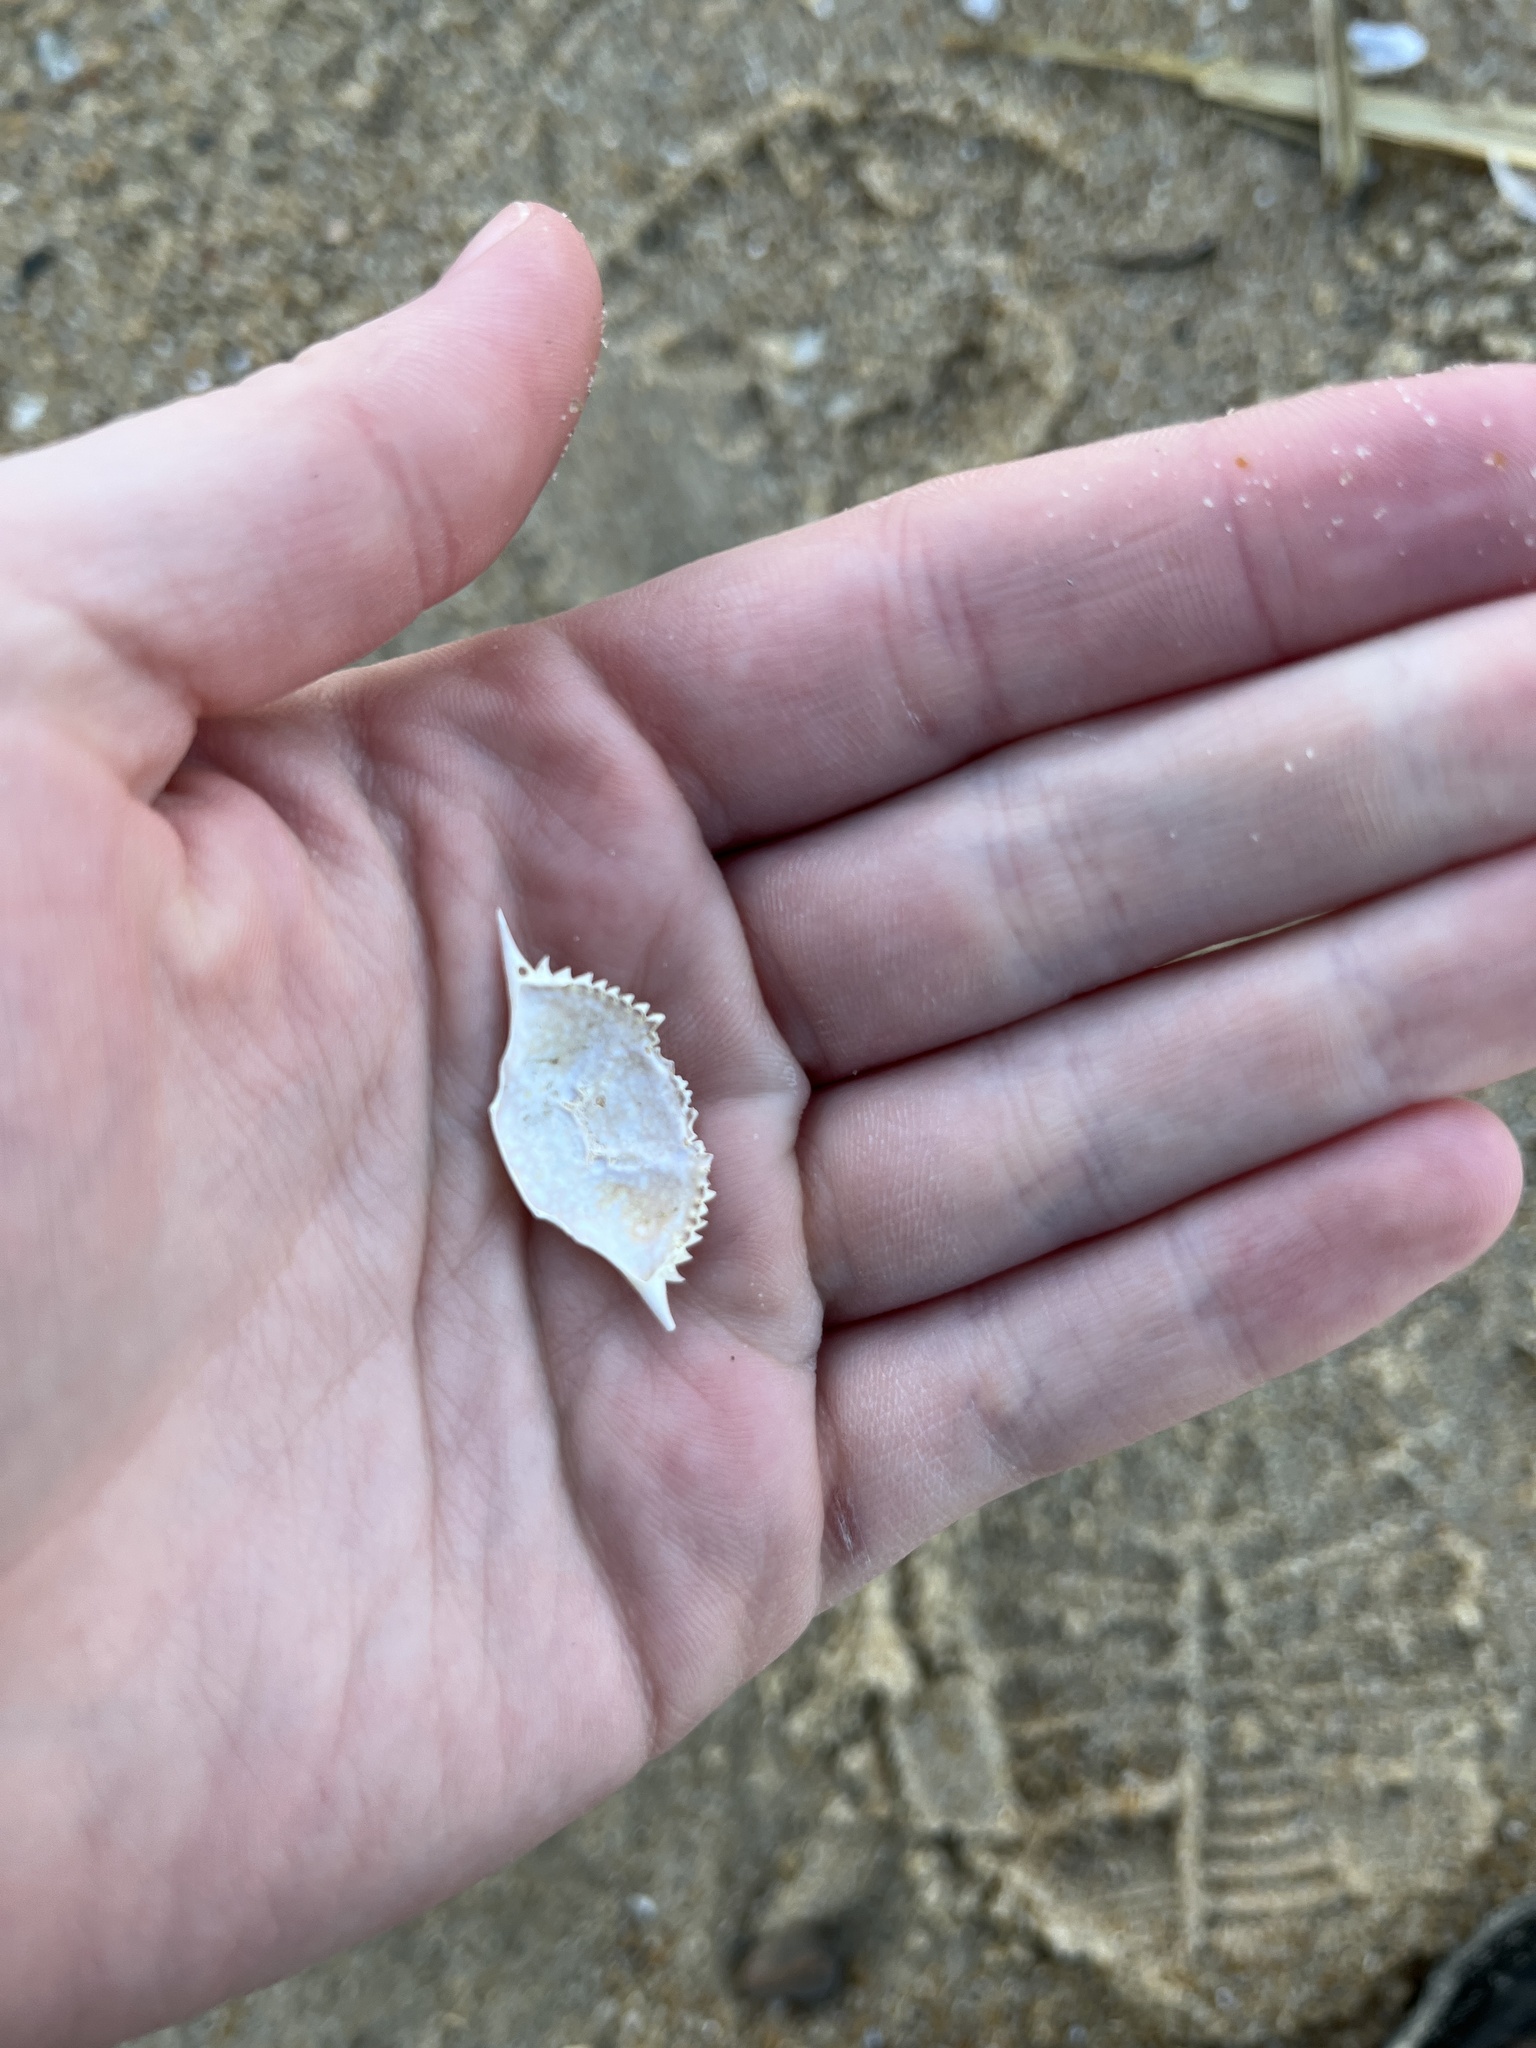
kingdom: Animalia
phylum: Arthropoda
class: Malacostraca
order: Decapoda
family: Portunidae
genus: Arenaeus
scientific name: Arenaeus cribrarius
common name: Speckled crab
